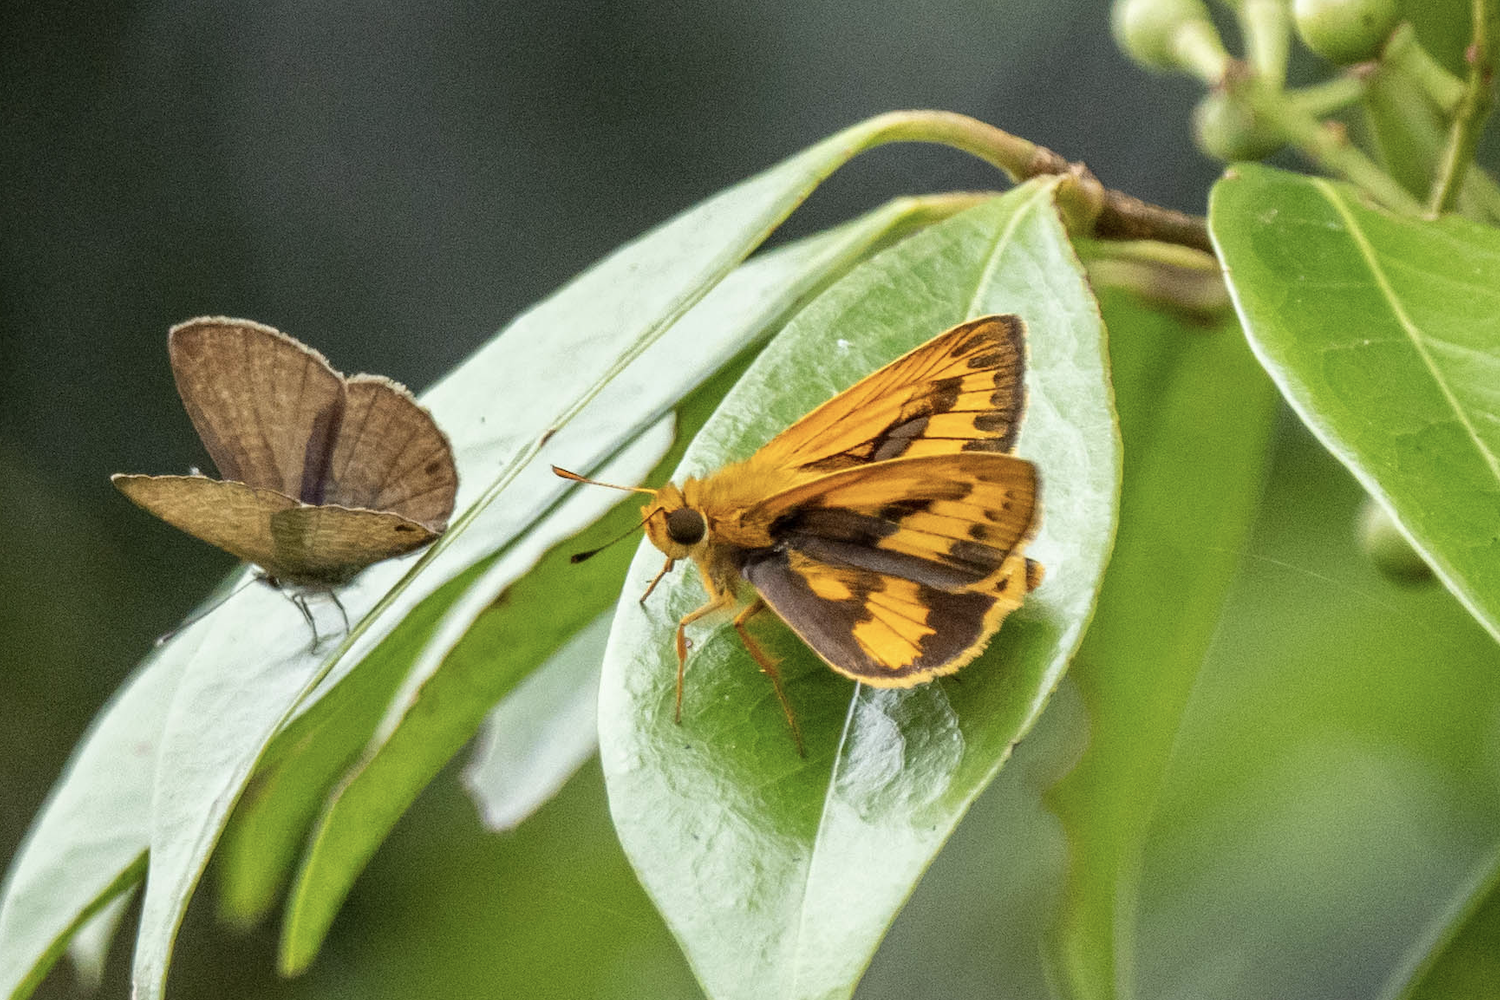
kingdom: Animalia
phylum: Arthropoda
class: Insecta
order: Lepidoptera
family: Hesperiidae
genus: Telicota
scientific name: Telicota bambusae
